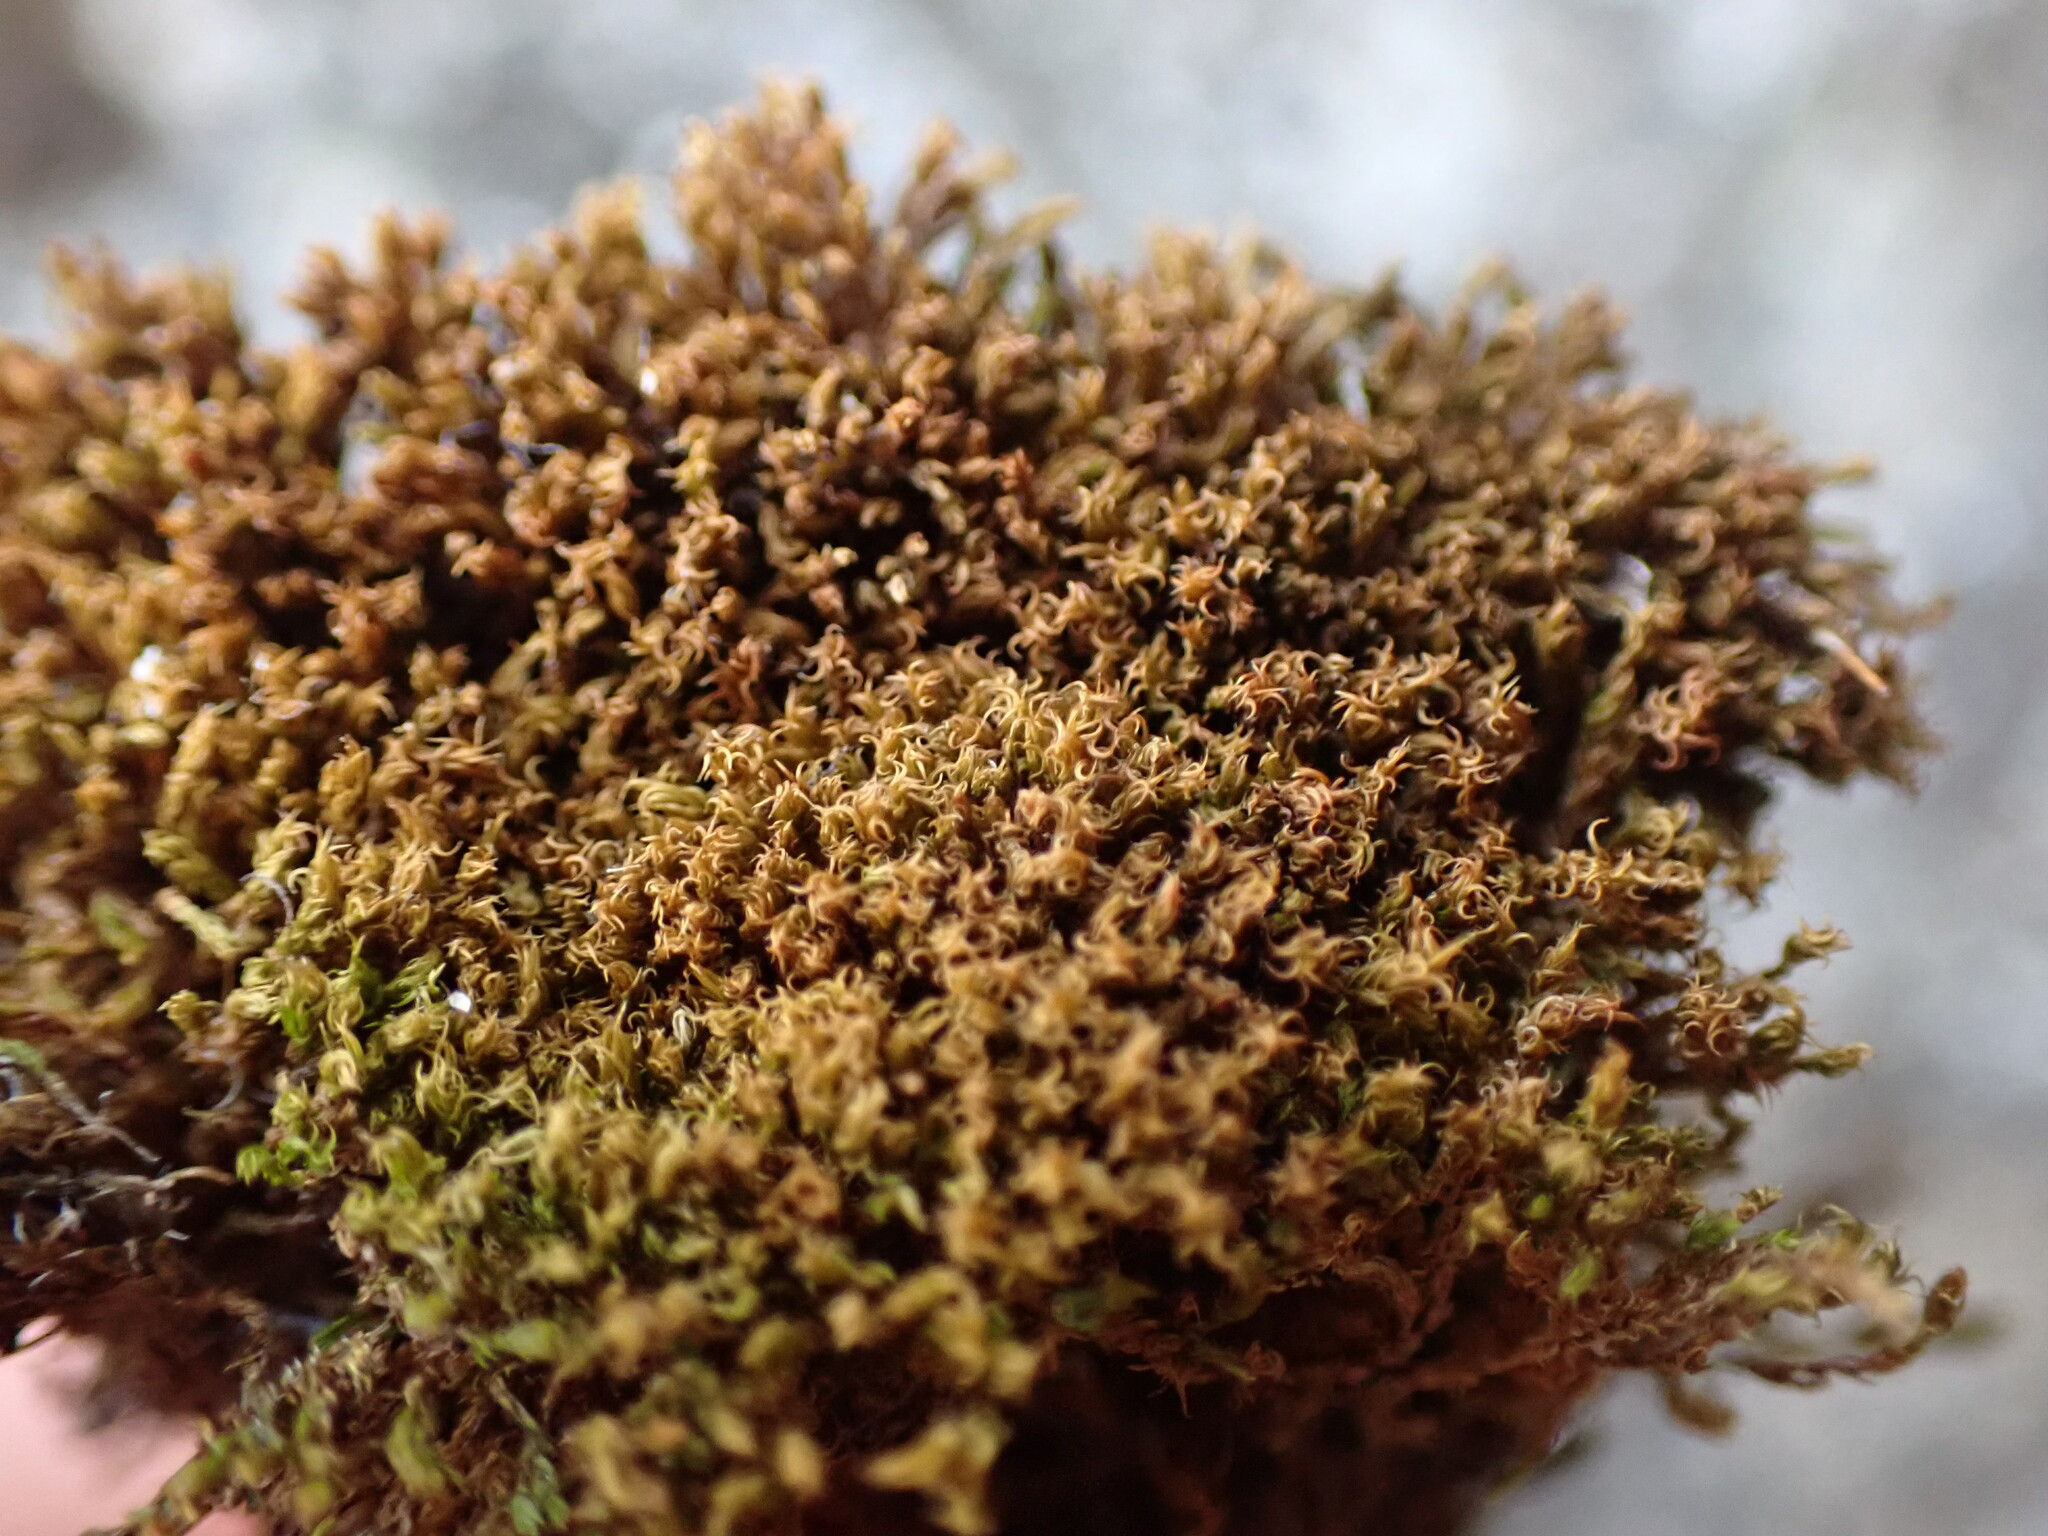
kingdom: Plantae
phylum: Bryophyta
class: Bryopsida
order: Dicranales
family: Amphidiaceae
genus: Amphidium
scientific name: Amphidium californicum
